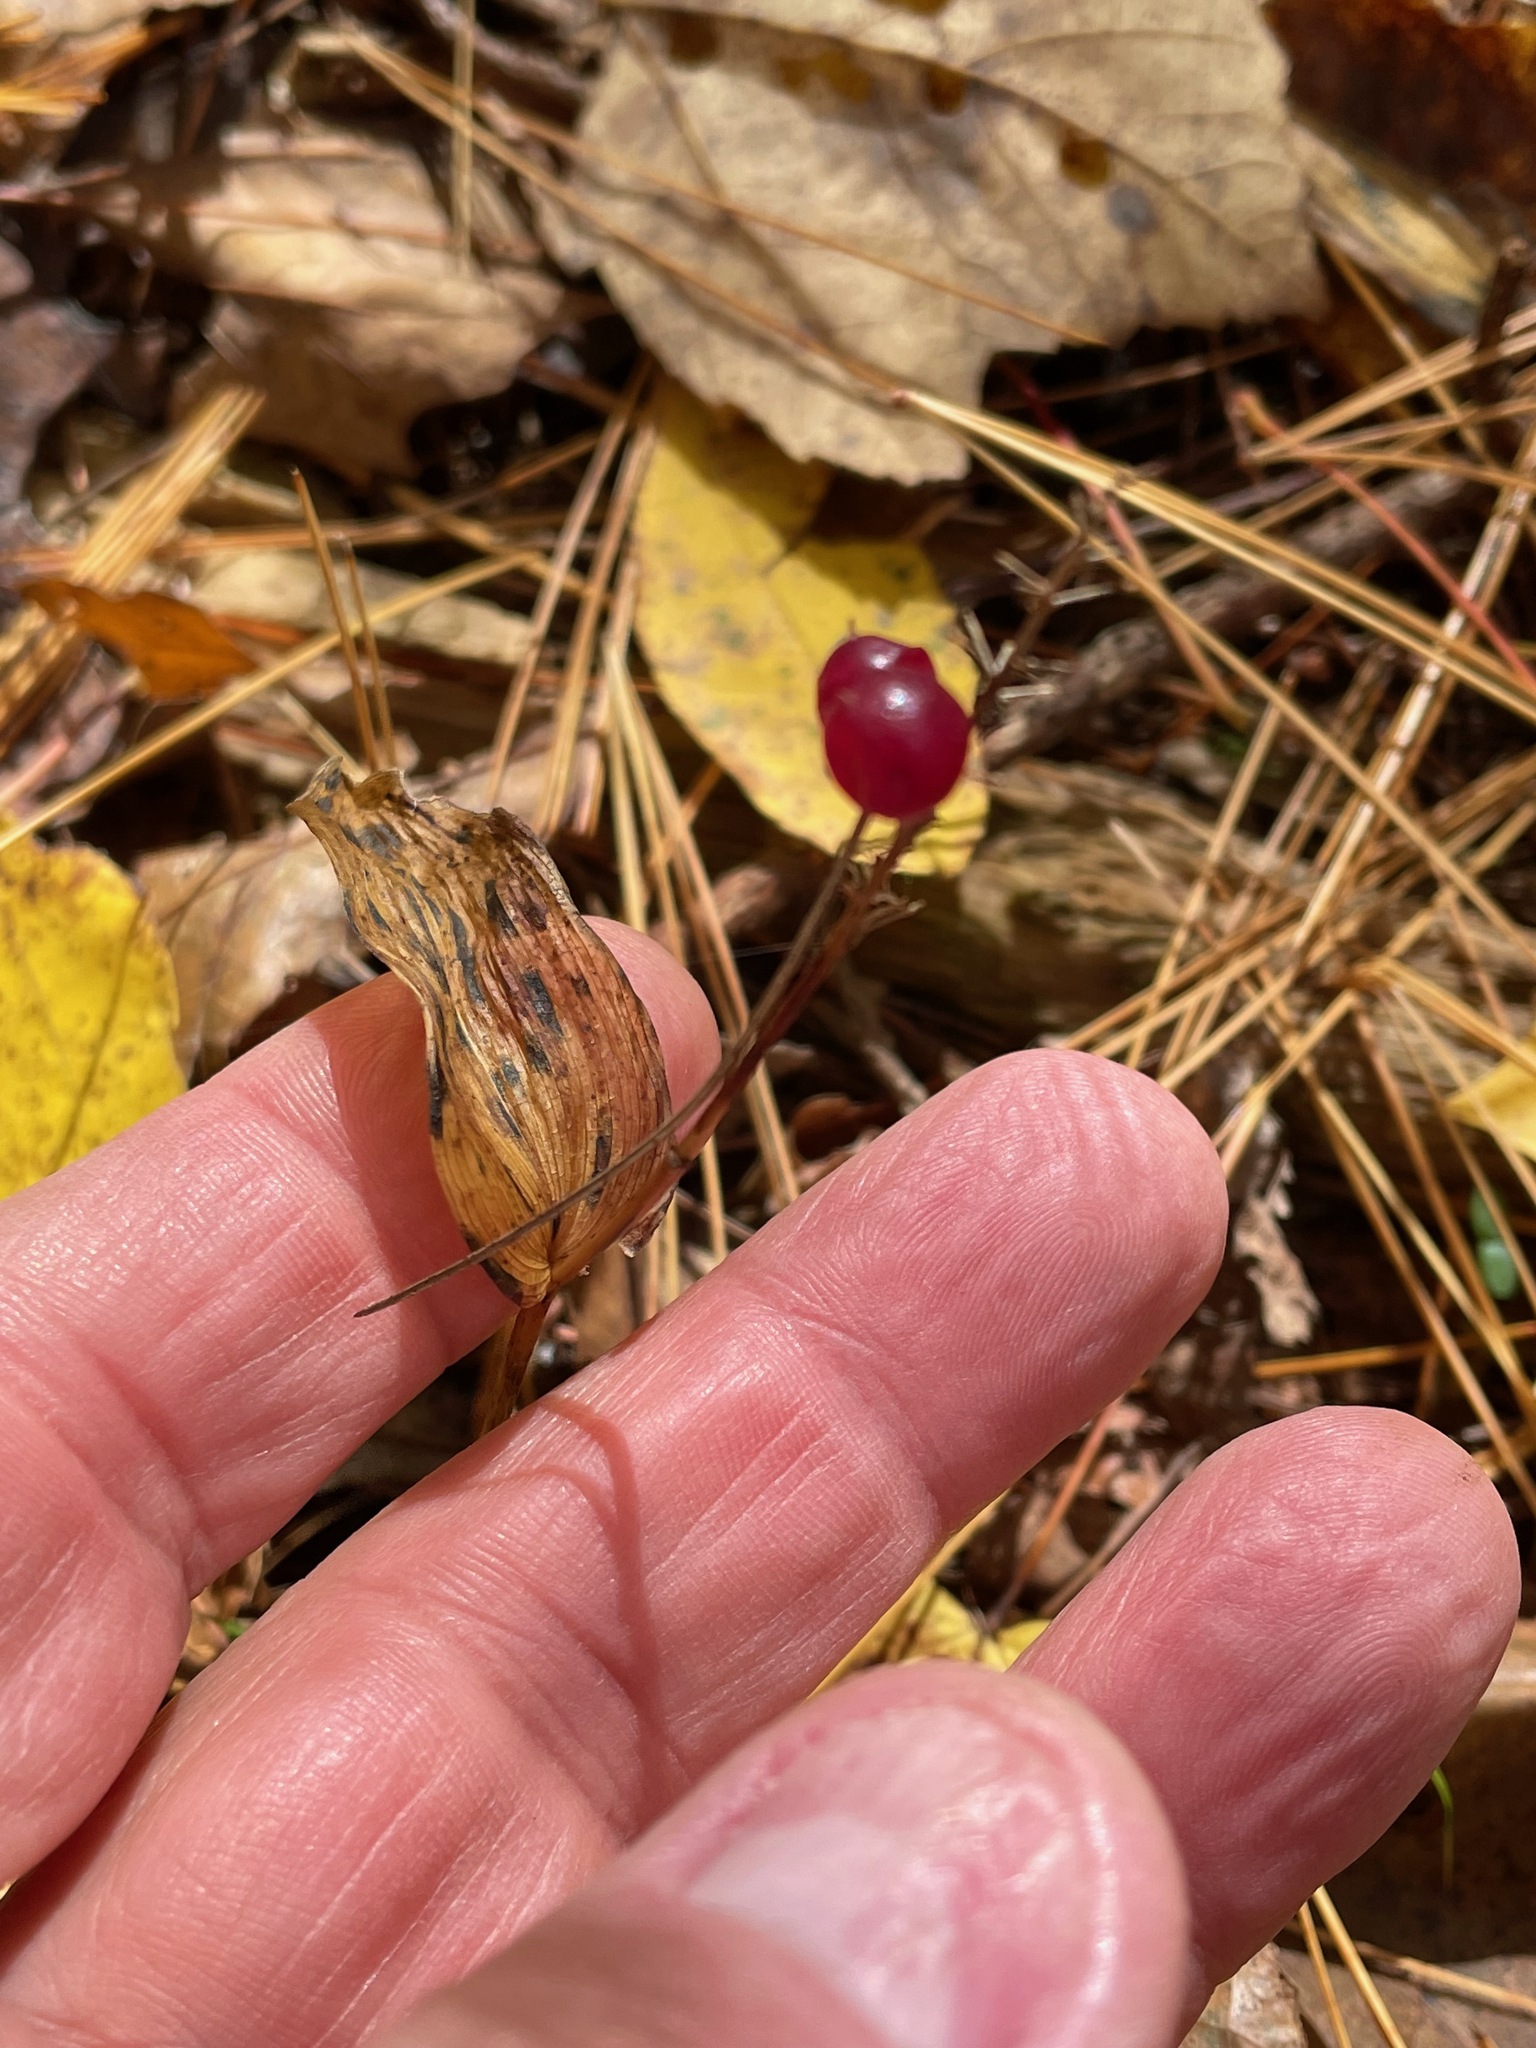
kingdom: Plantae
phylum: Tracheophyta
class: Liliopsida
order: Asparagales
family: Asparagaceae
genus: Maianthemum
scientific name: Maianthemum canadense
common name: False lily-of-the-valley
